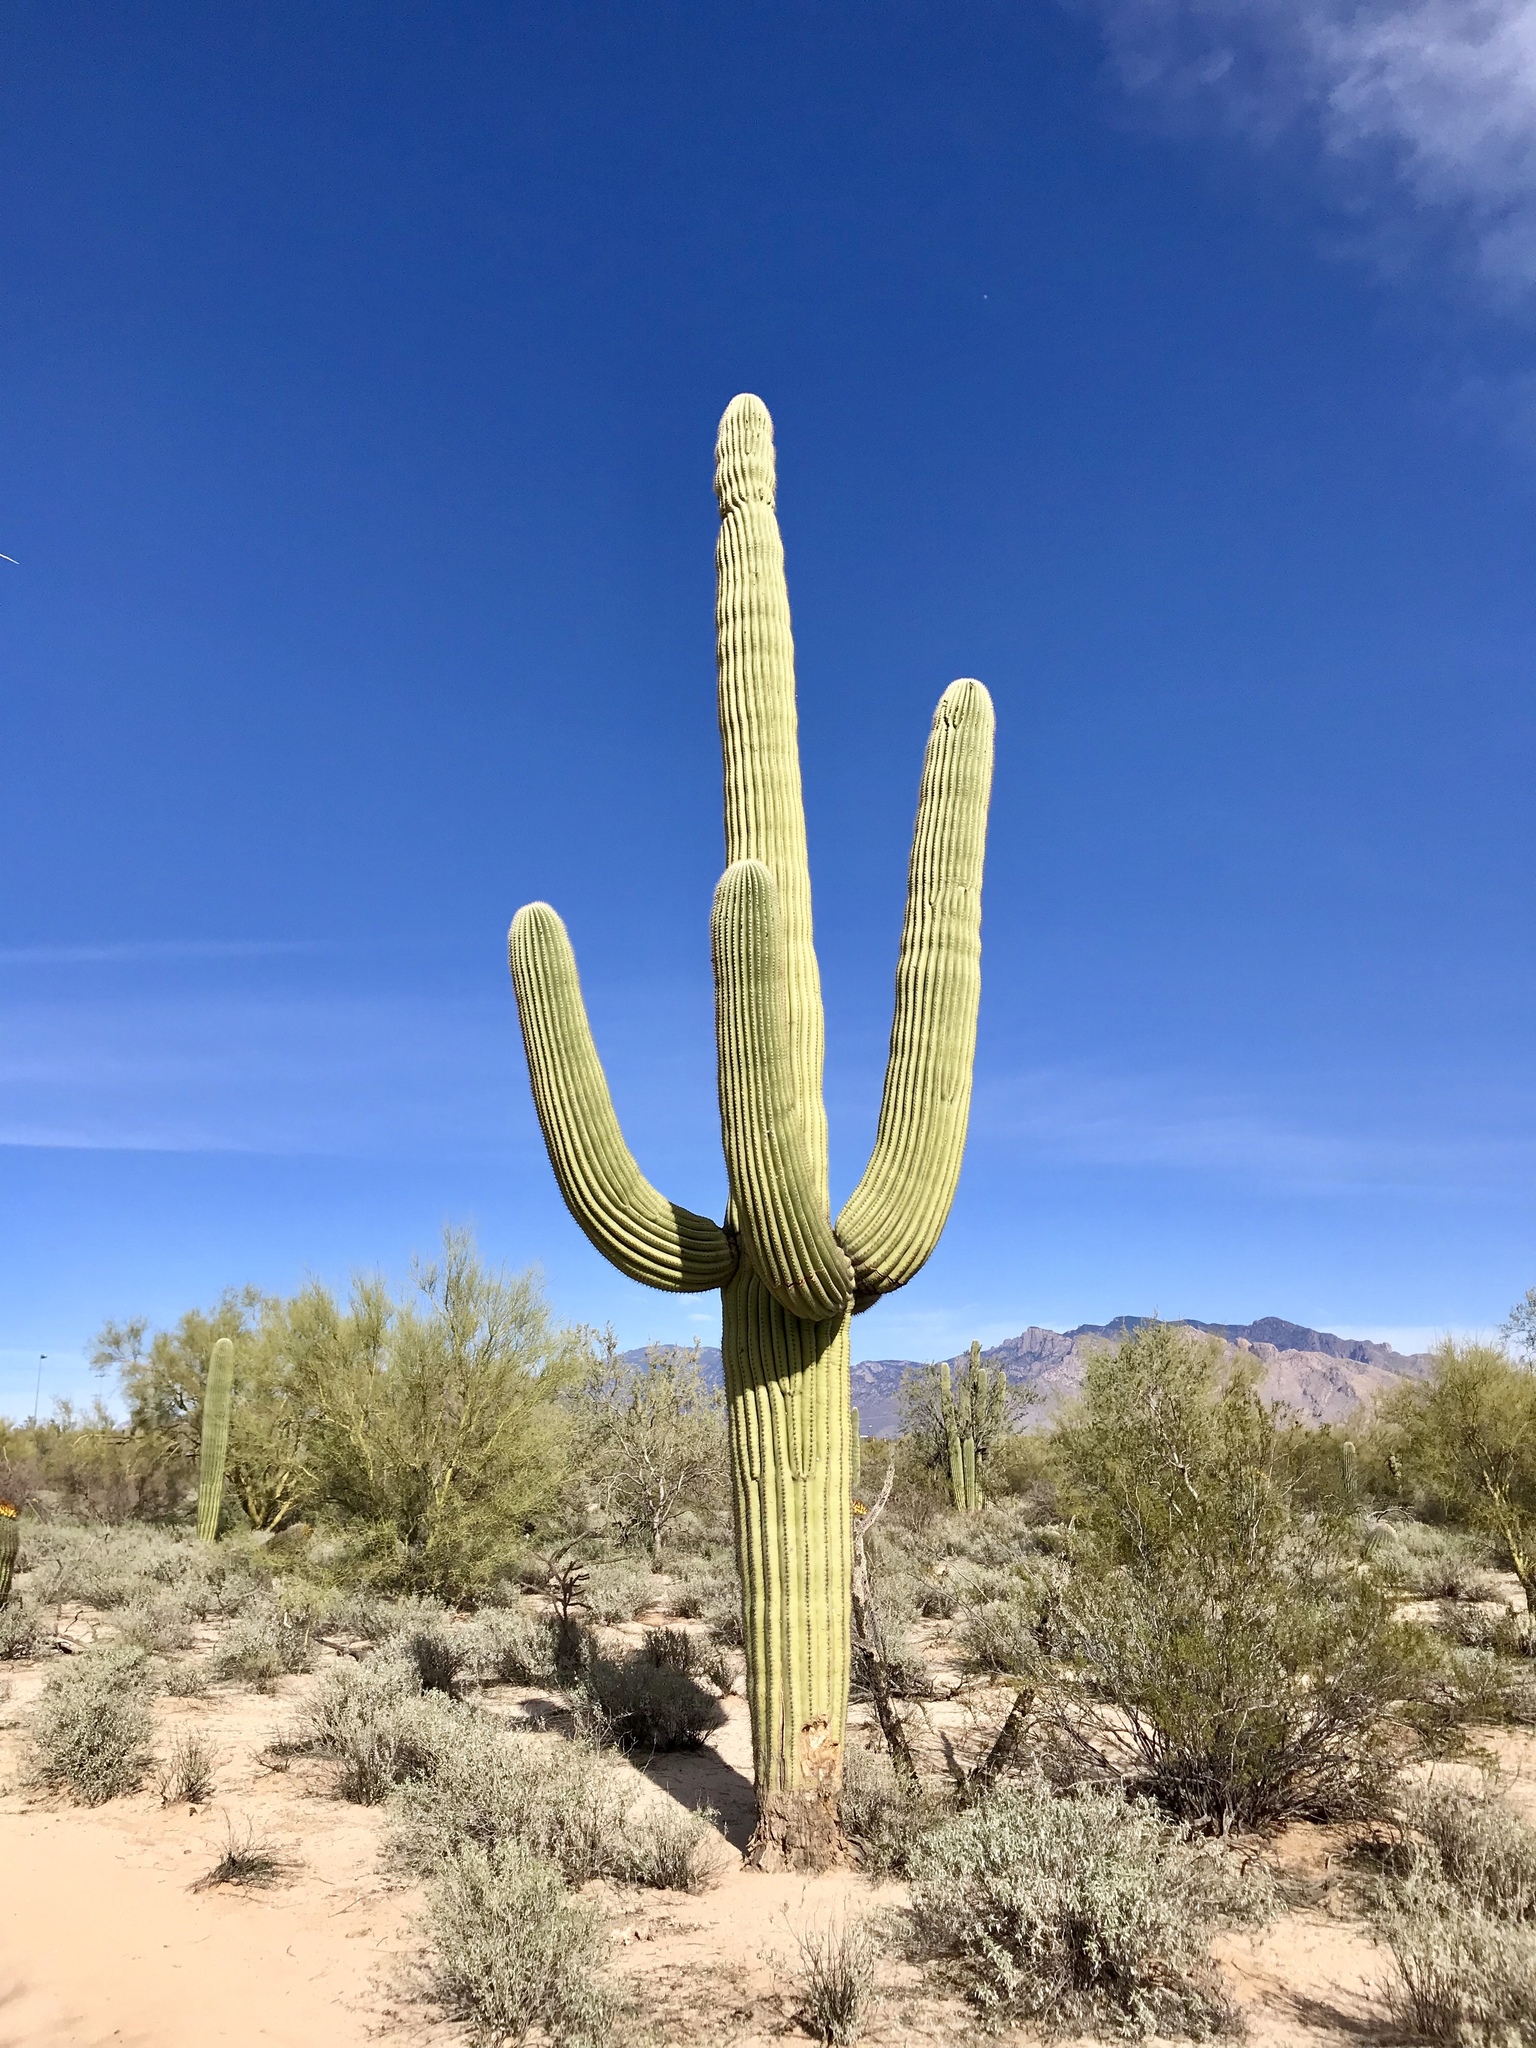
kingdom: Plantae
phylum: Tracheophyta
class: Magnoliopsida
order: Caryophyllales
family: Cactaceae
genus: Carnegiea
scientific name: Carnegiea gigantea
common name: Saguaro
